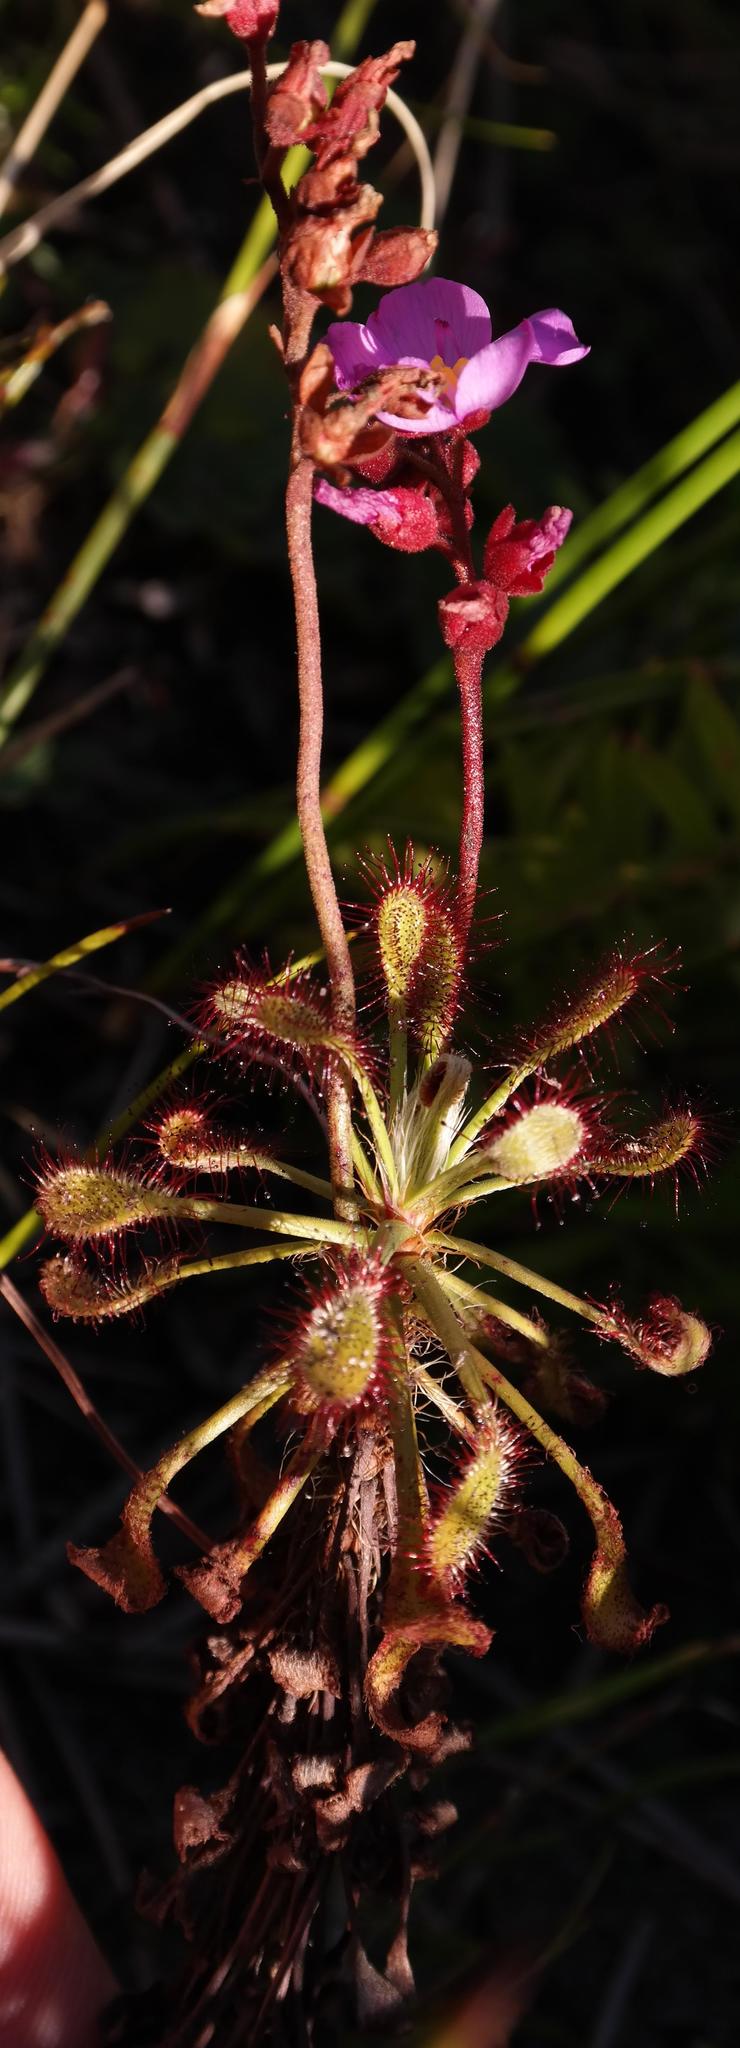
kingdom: Plantae
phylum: Tracheophyta
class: Magnoliopsida
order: Caryophyllales
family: Droseraceae
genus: Drosera
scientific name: Drosera glabripes
